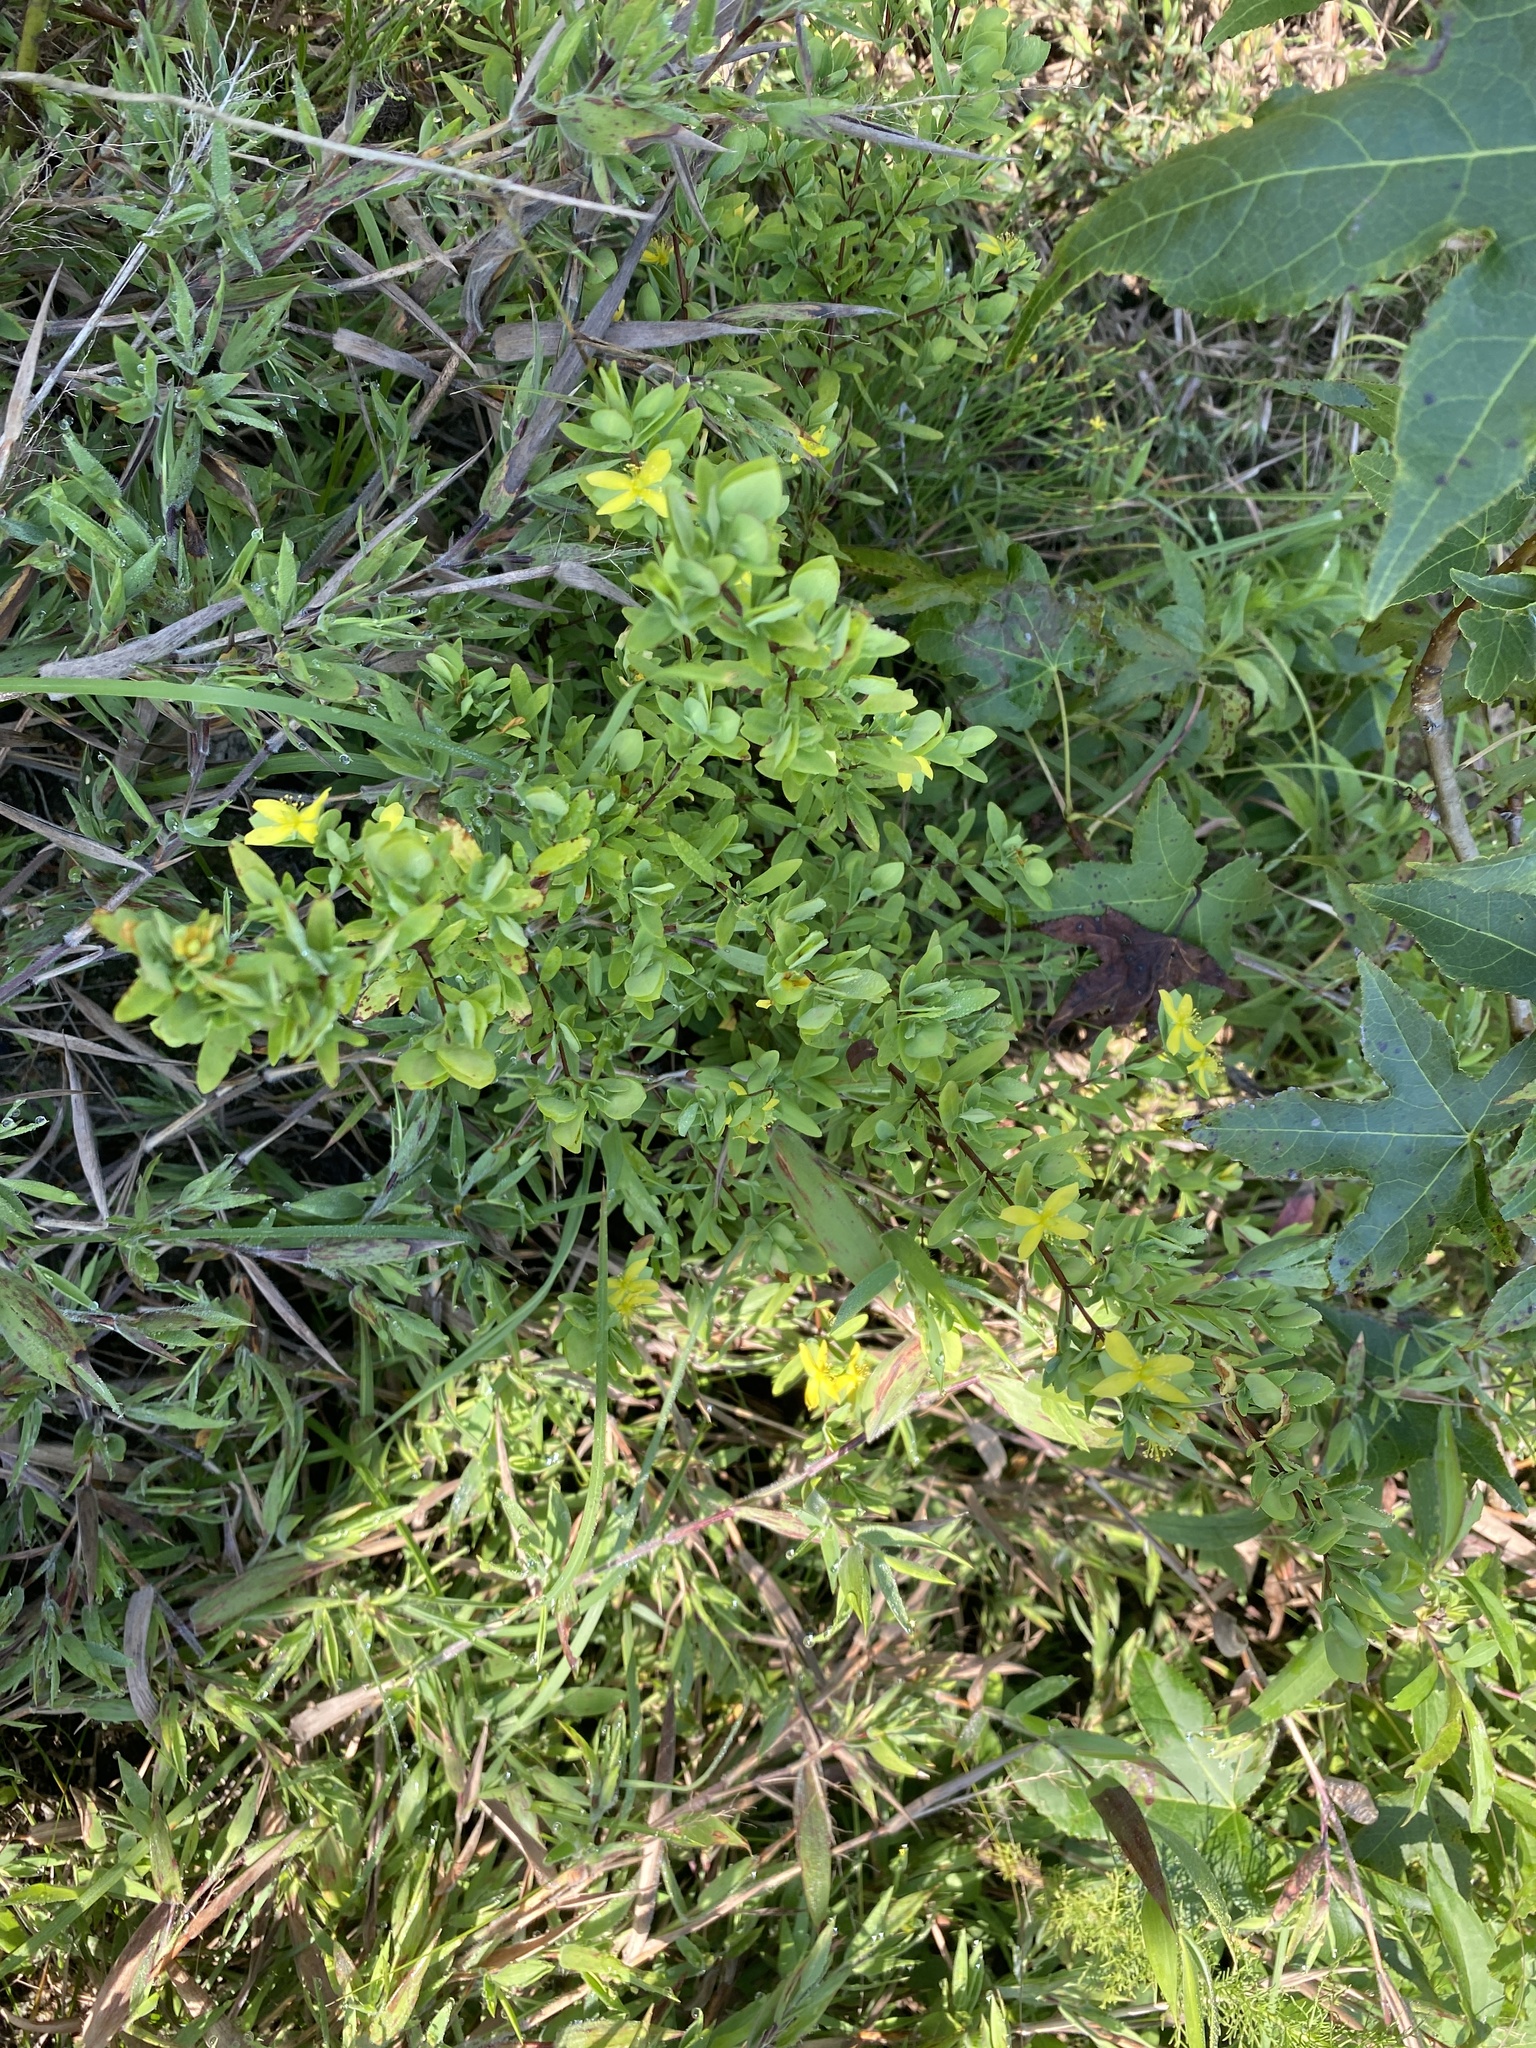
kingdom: Plantae
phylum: Tracheophyta
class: Magnoliopsida
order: Malpighiales
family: Hypericaceae
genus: Hypericum
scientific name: Hypericum crux-andreae
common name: St.-peter's-wort
